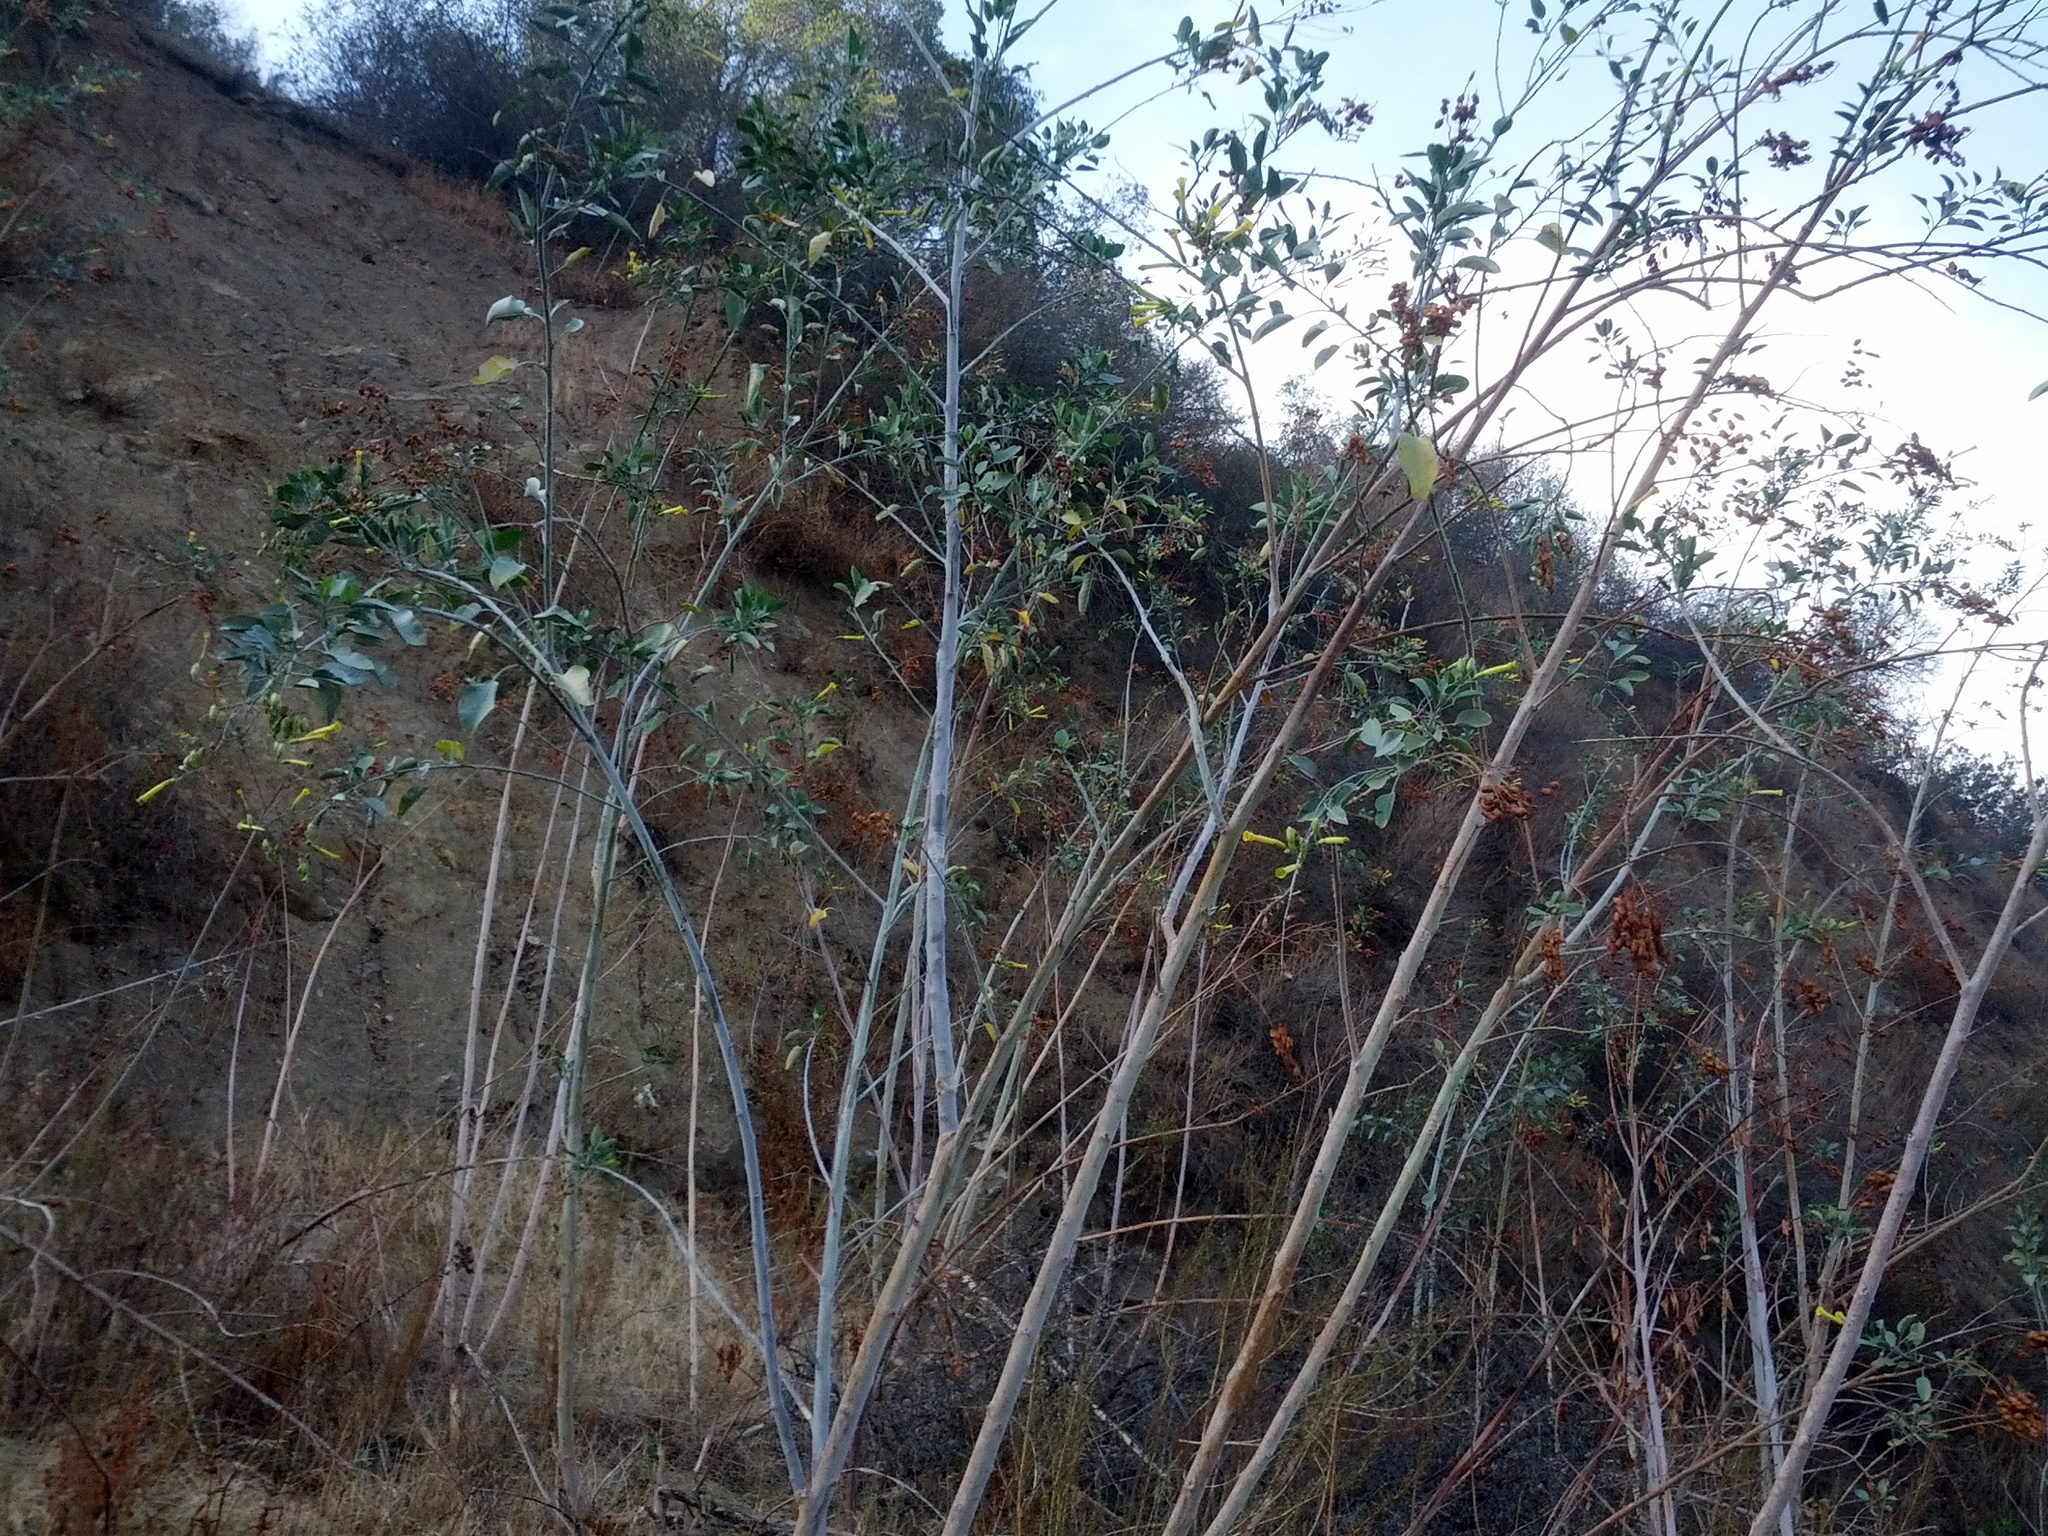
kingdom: Plantae
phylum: Tracheophyta
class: Magnoliopsida
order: Solanales
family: Solanaceae
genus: Nicotiana
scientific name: Nicotiana glauca
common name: Tree tobacco
